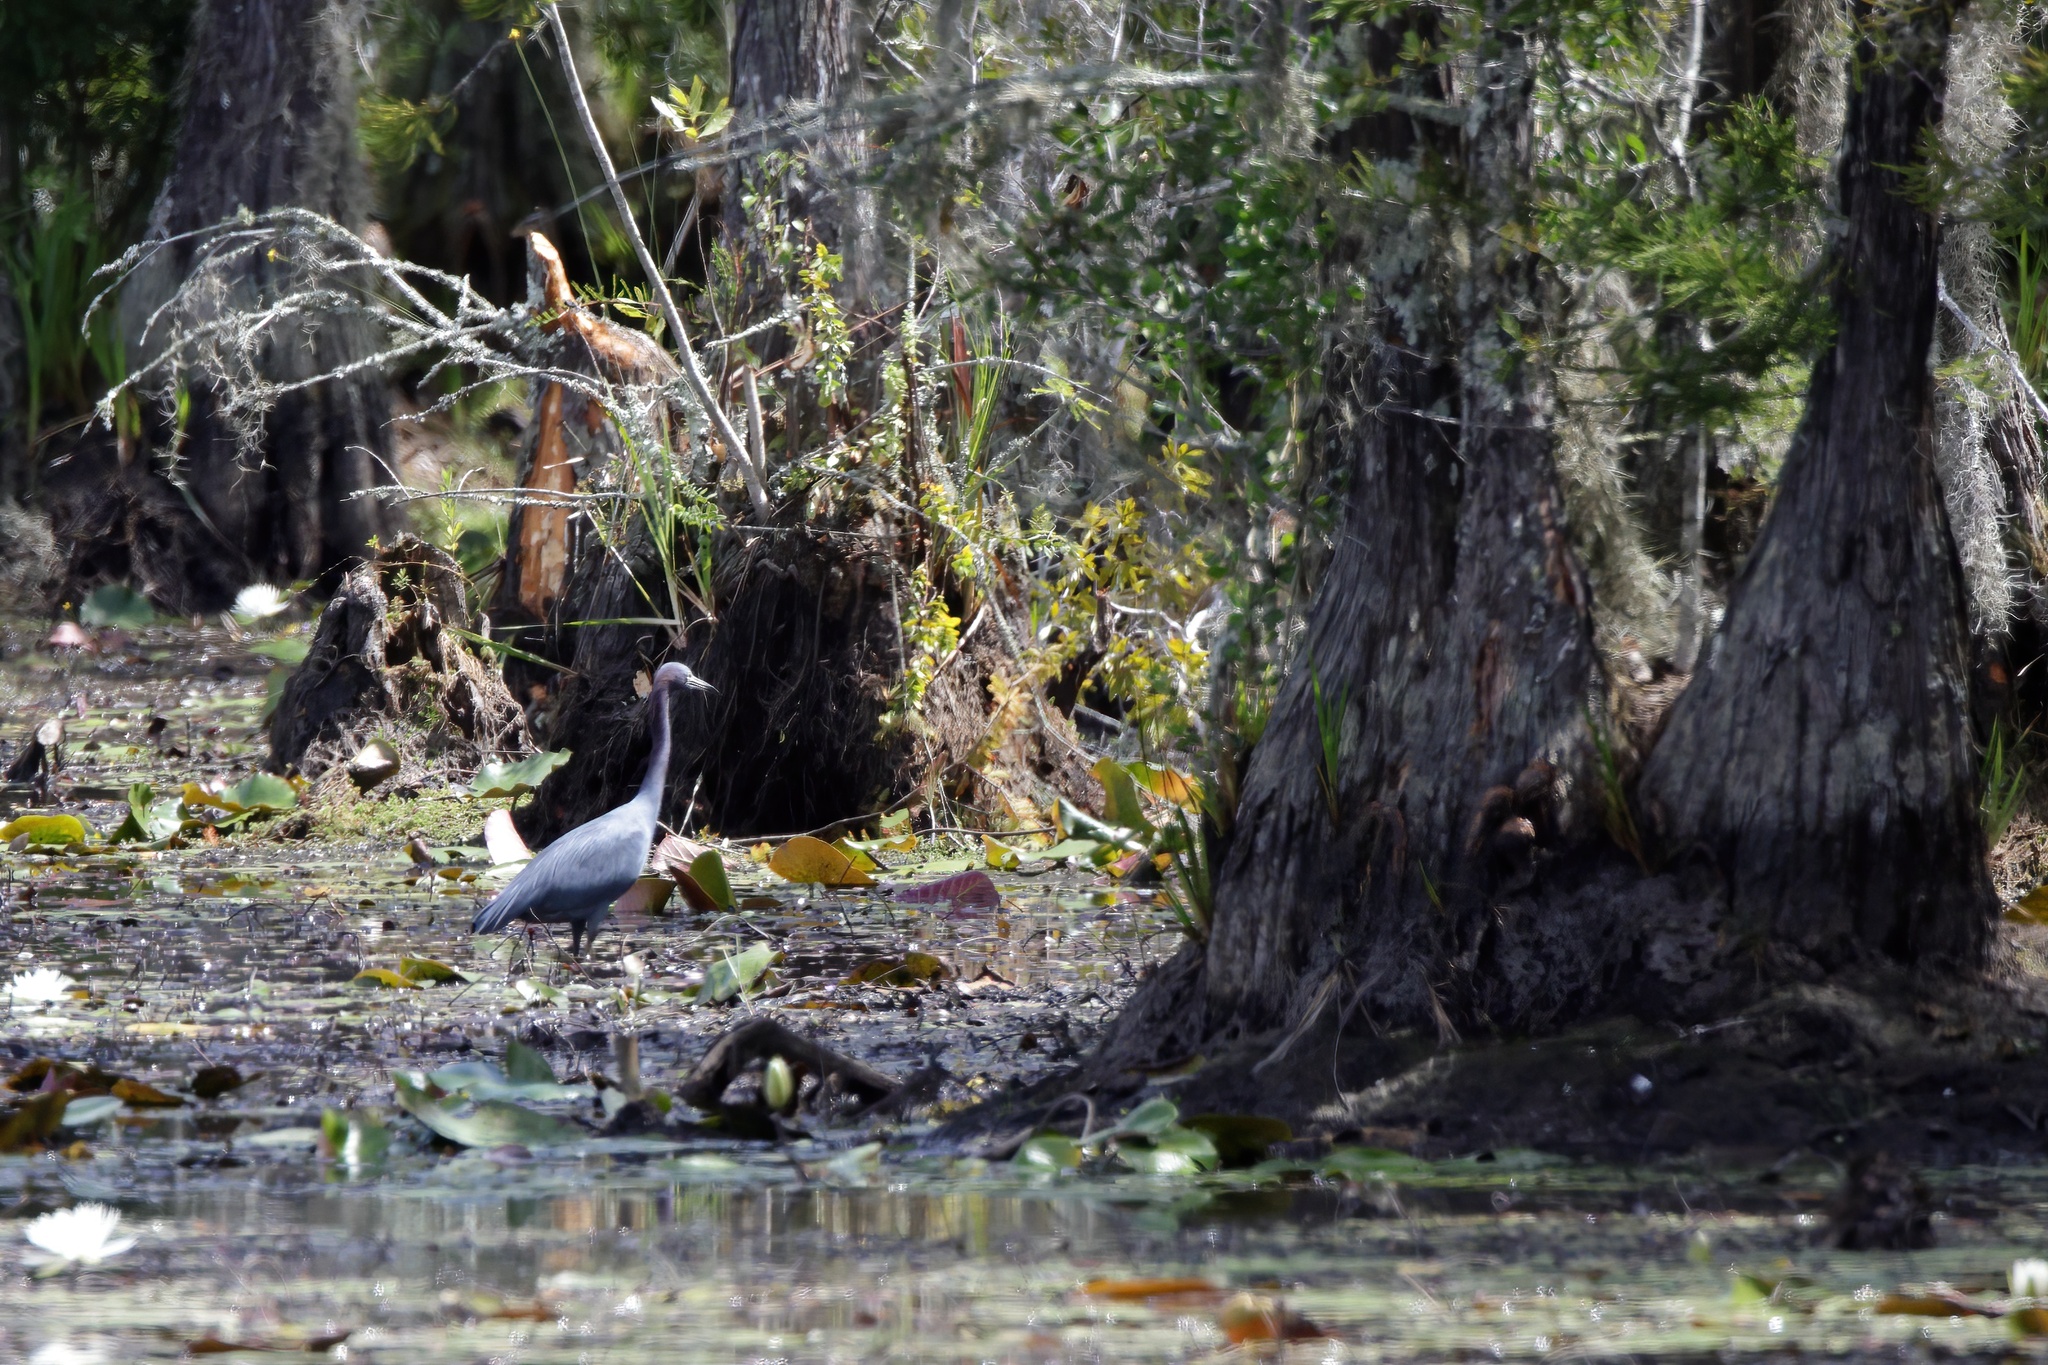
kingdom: Animalia
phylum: Chordata
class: Aves
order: Pelecaniformes
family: Ardeidae
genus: Egretta
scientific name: Egretta caerulea
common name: Little blue heron
